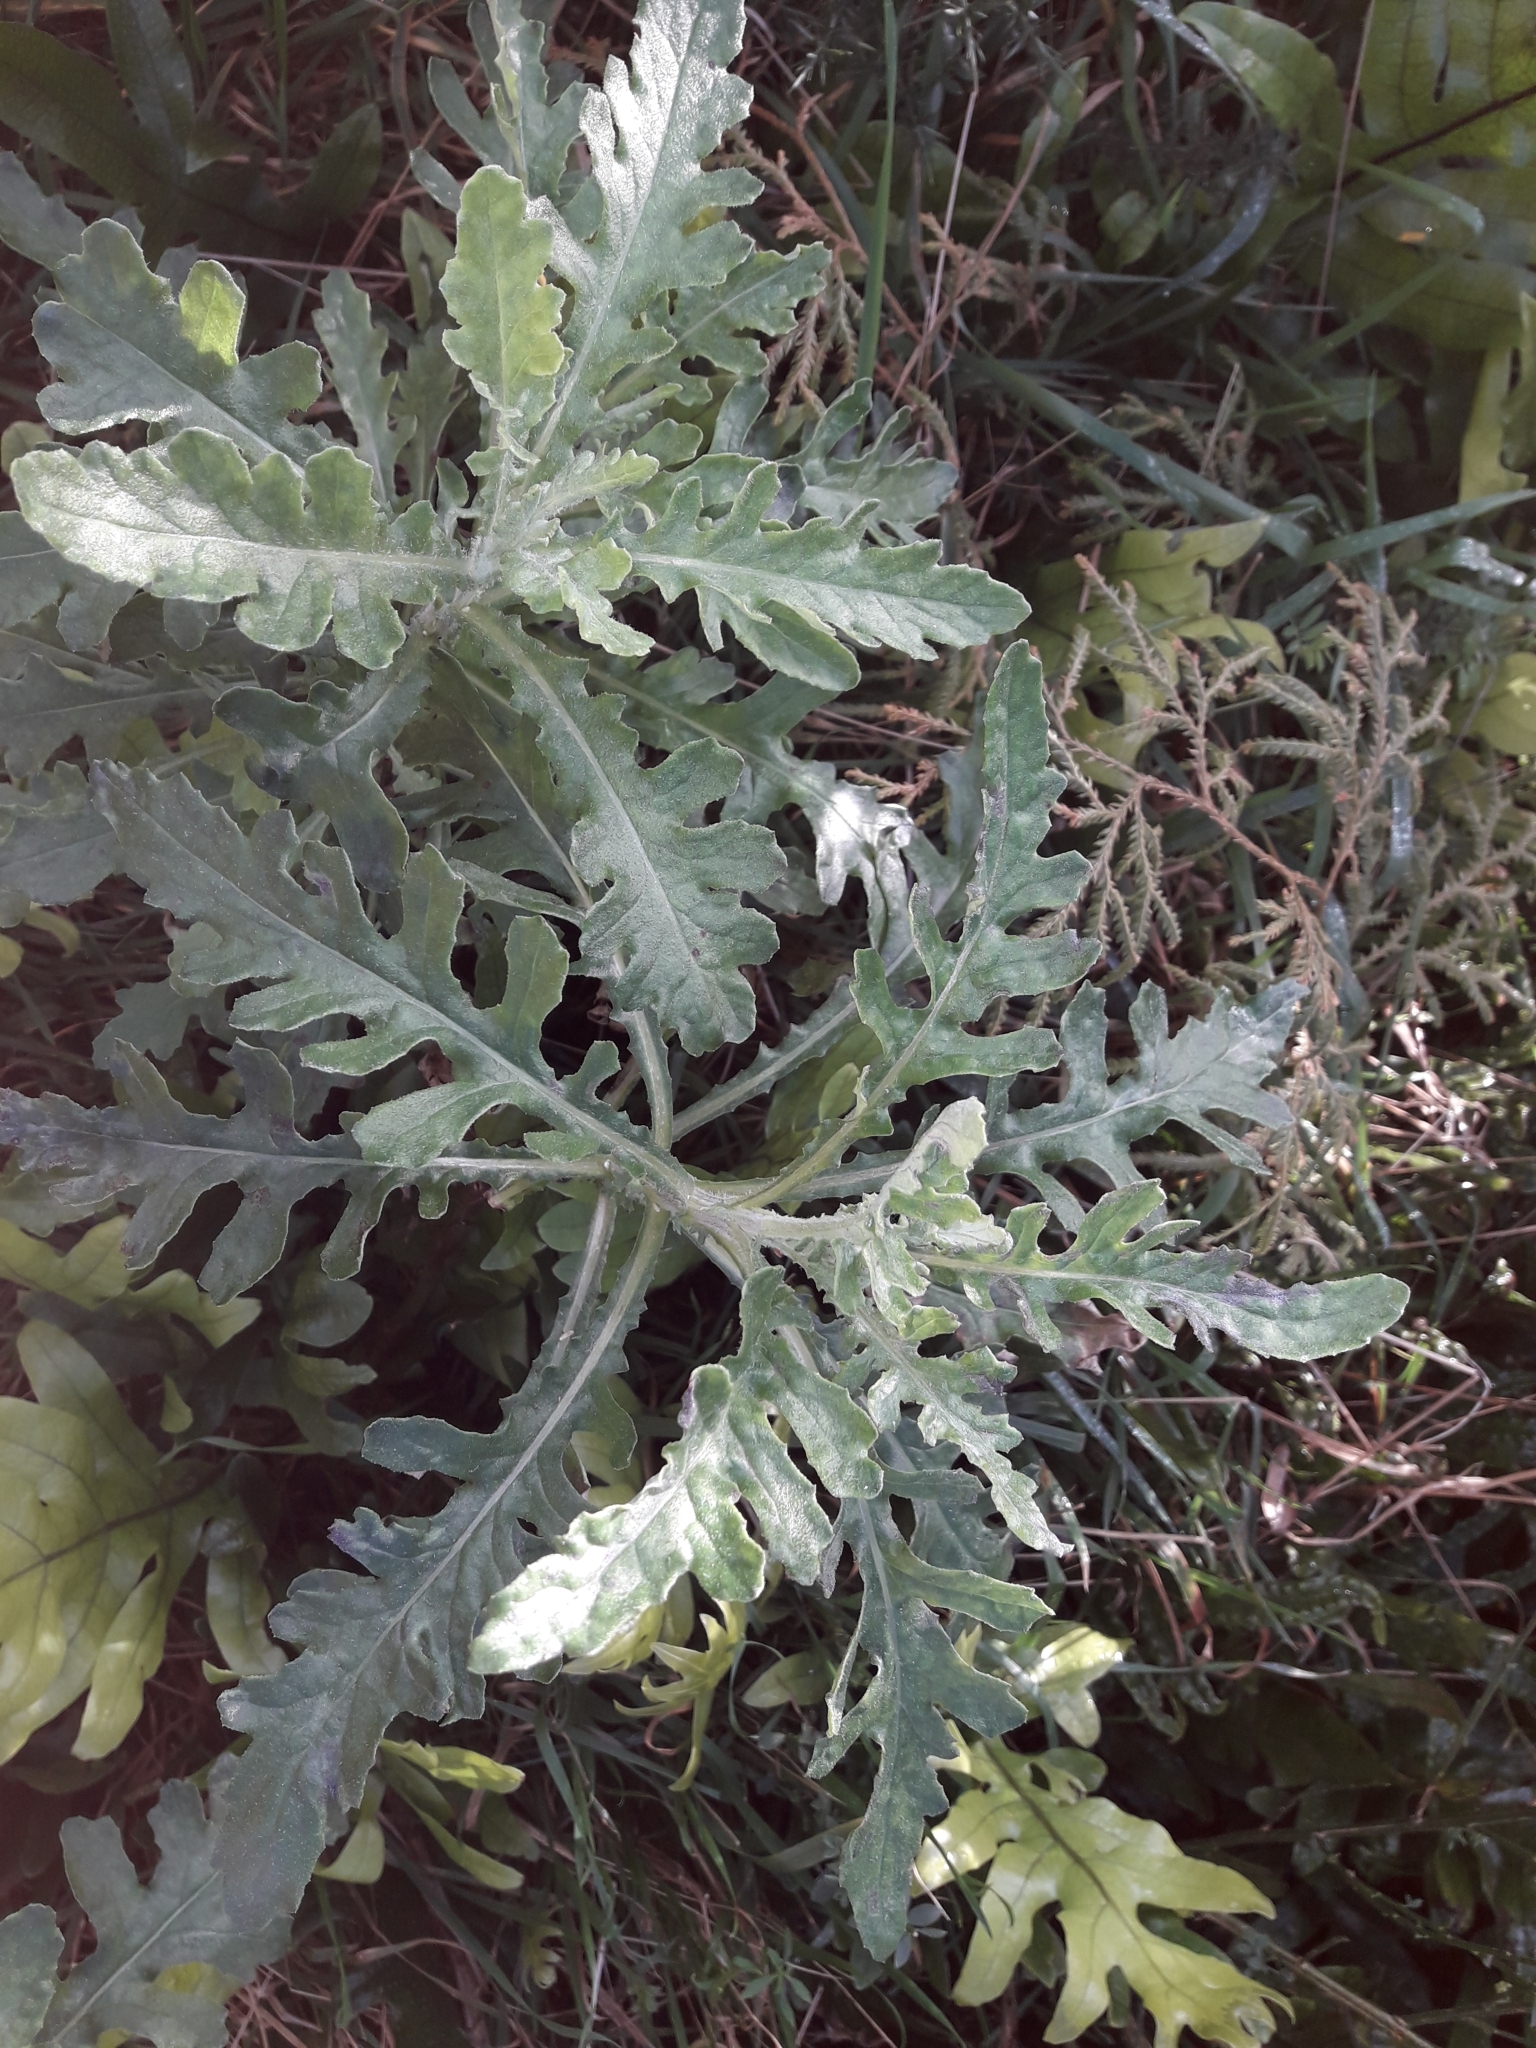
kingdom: Plantae
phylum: Tracheophyta
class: Magnoliopsida
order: Asterales
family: Asteraceae
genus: Senecio
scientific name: Senecio glomeratus
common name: Cutleaf burnweed
